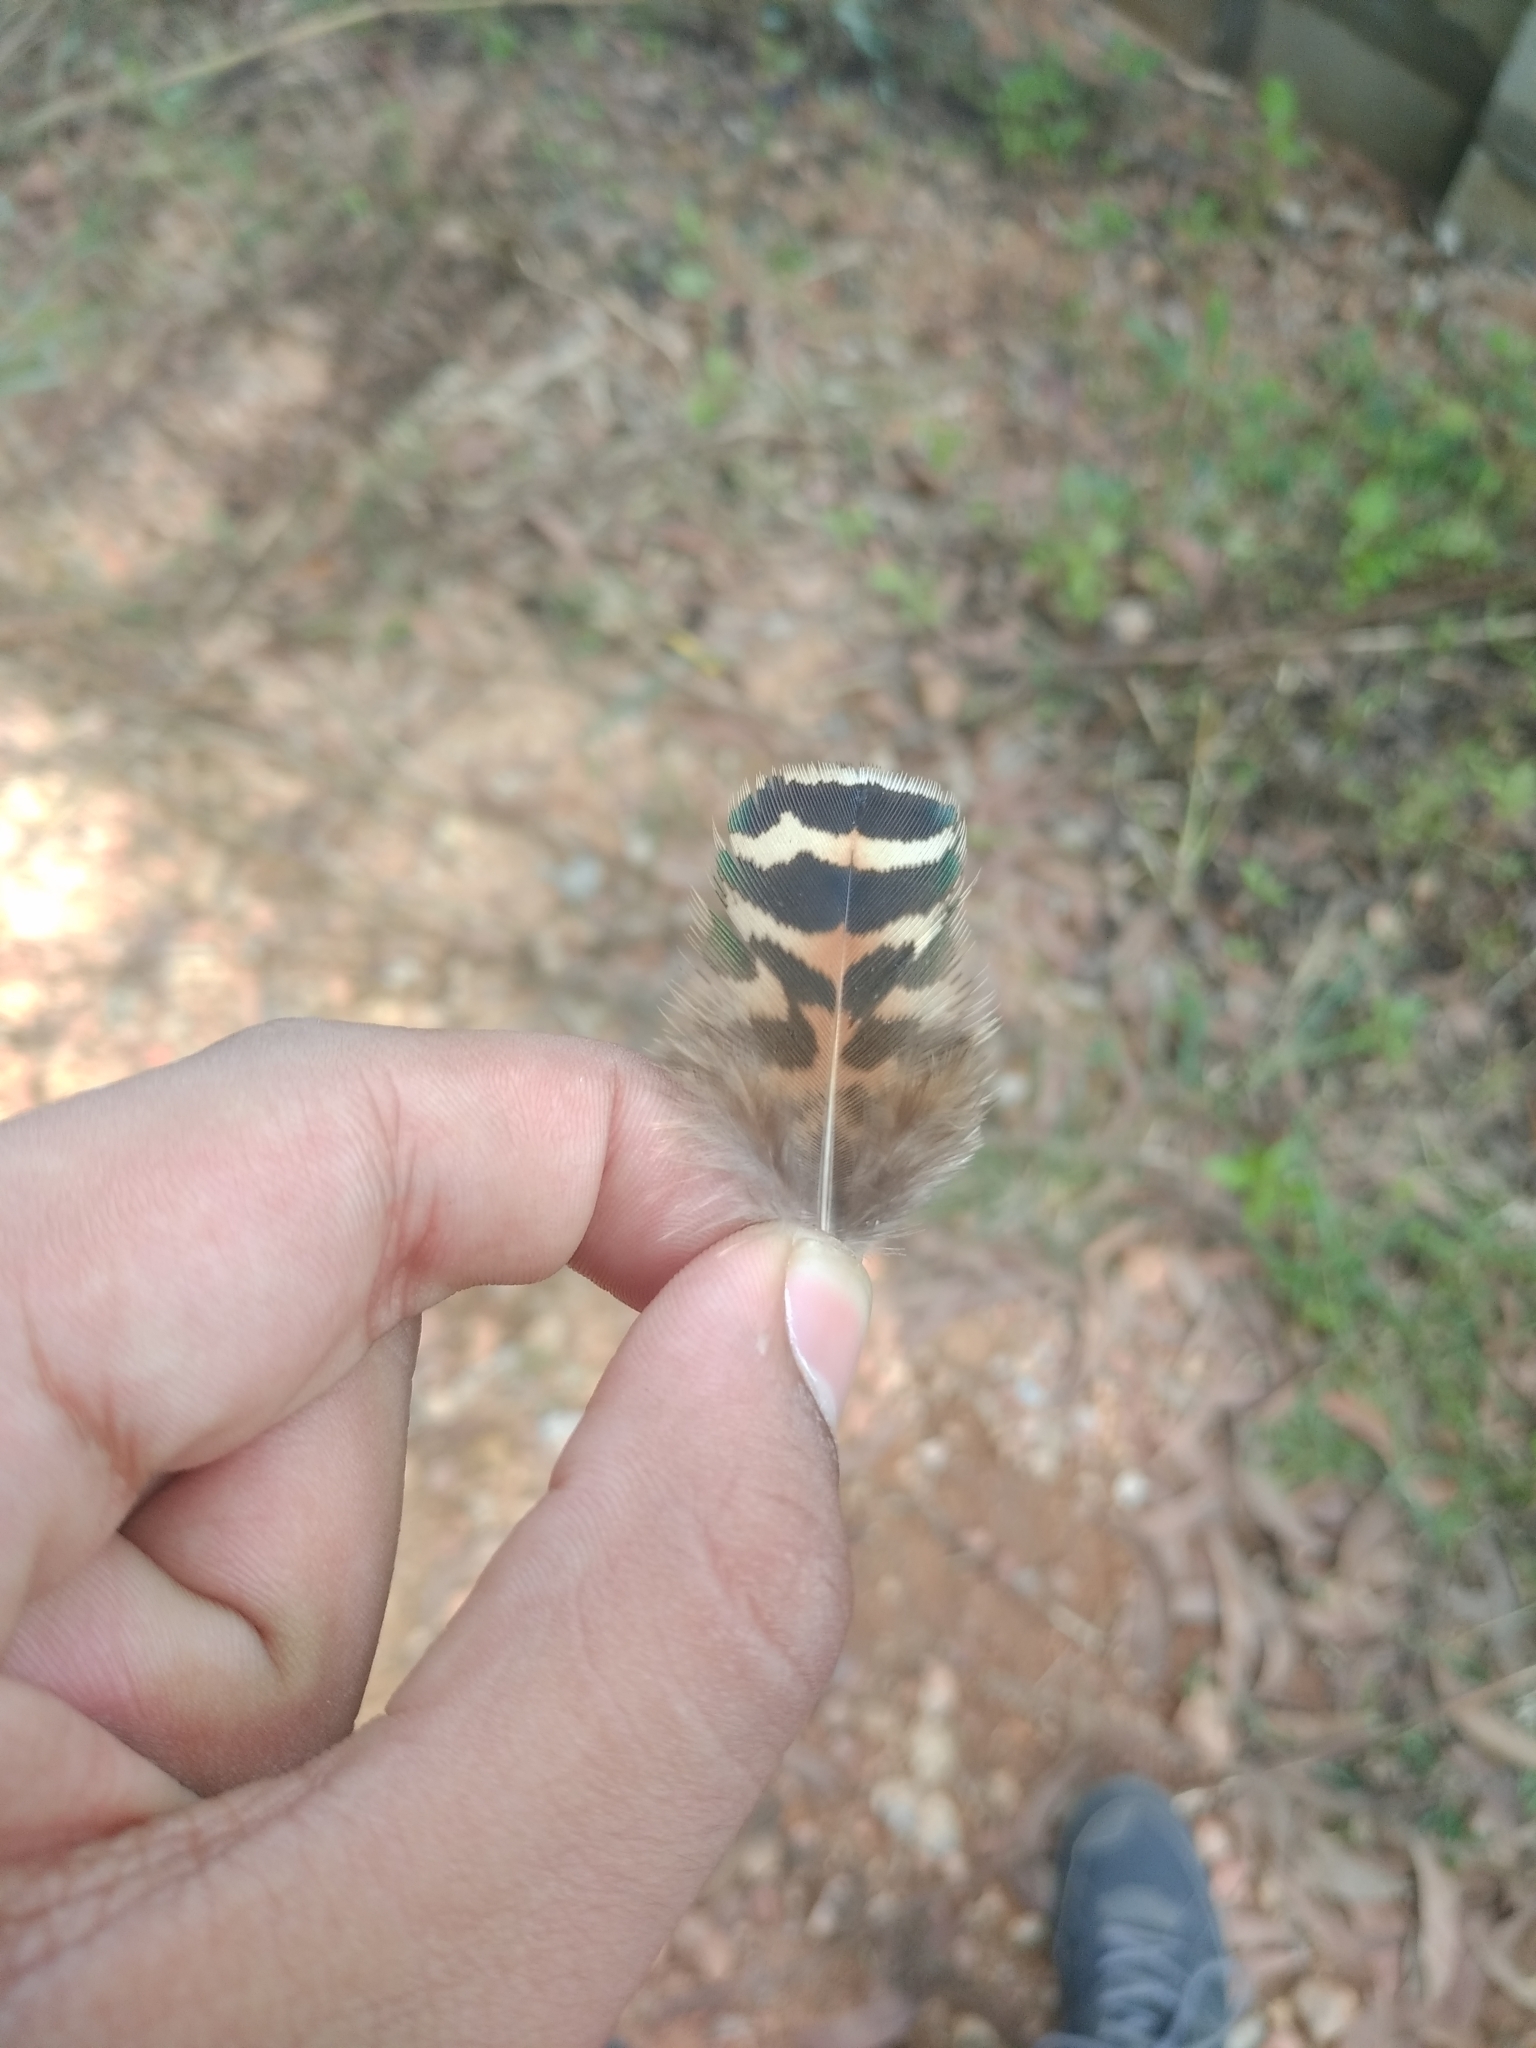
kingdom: Animalia
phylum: Chordata
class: Aves
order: Galliformes
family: Phasianidae
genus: Pavo
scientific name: Pavo cristatus
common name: Indian peafowl
